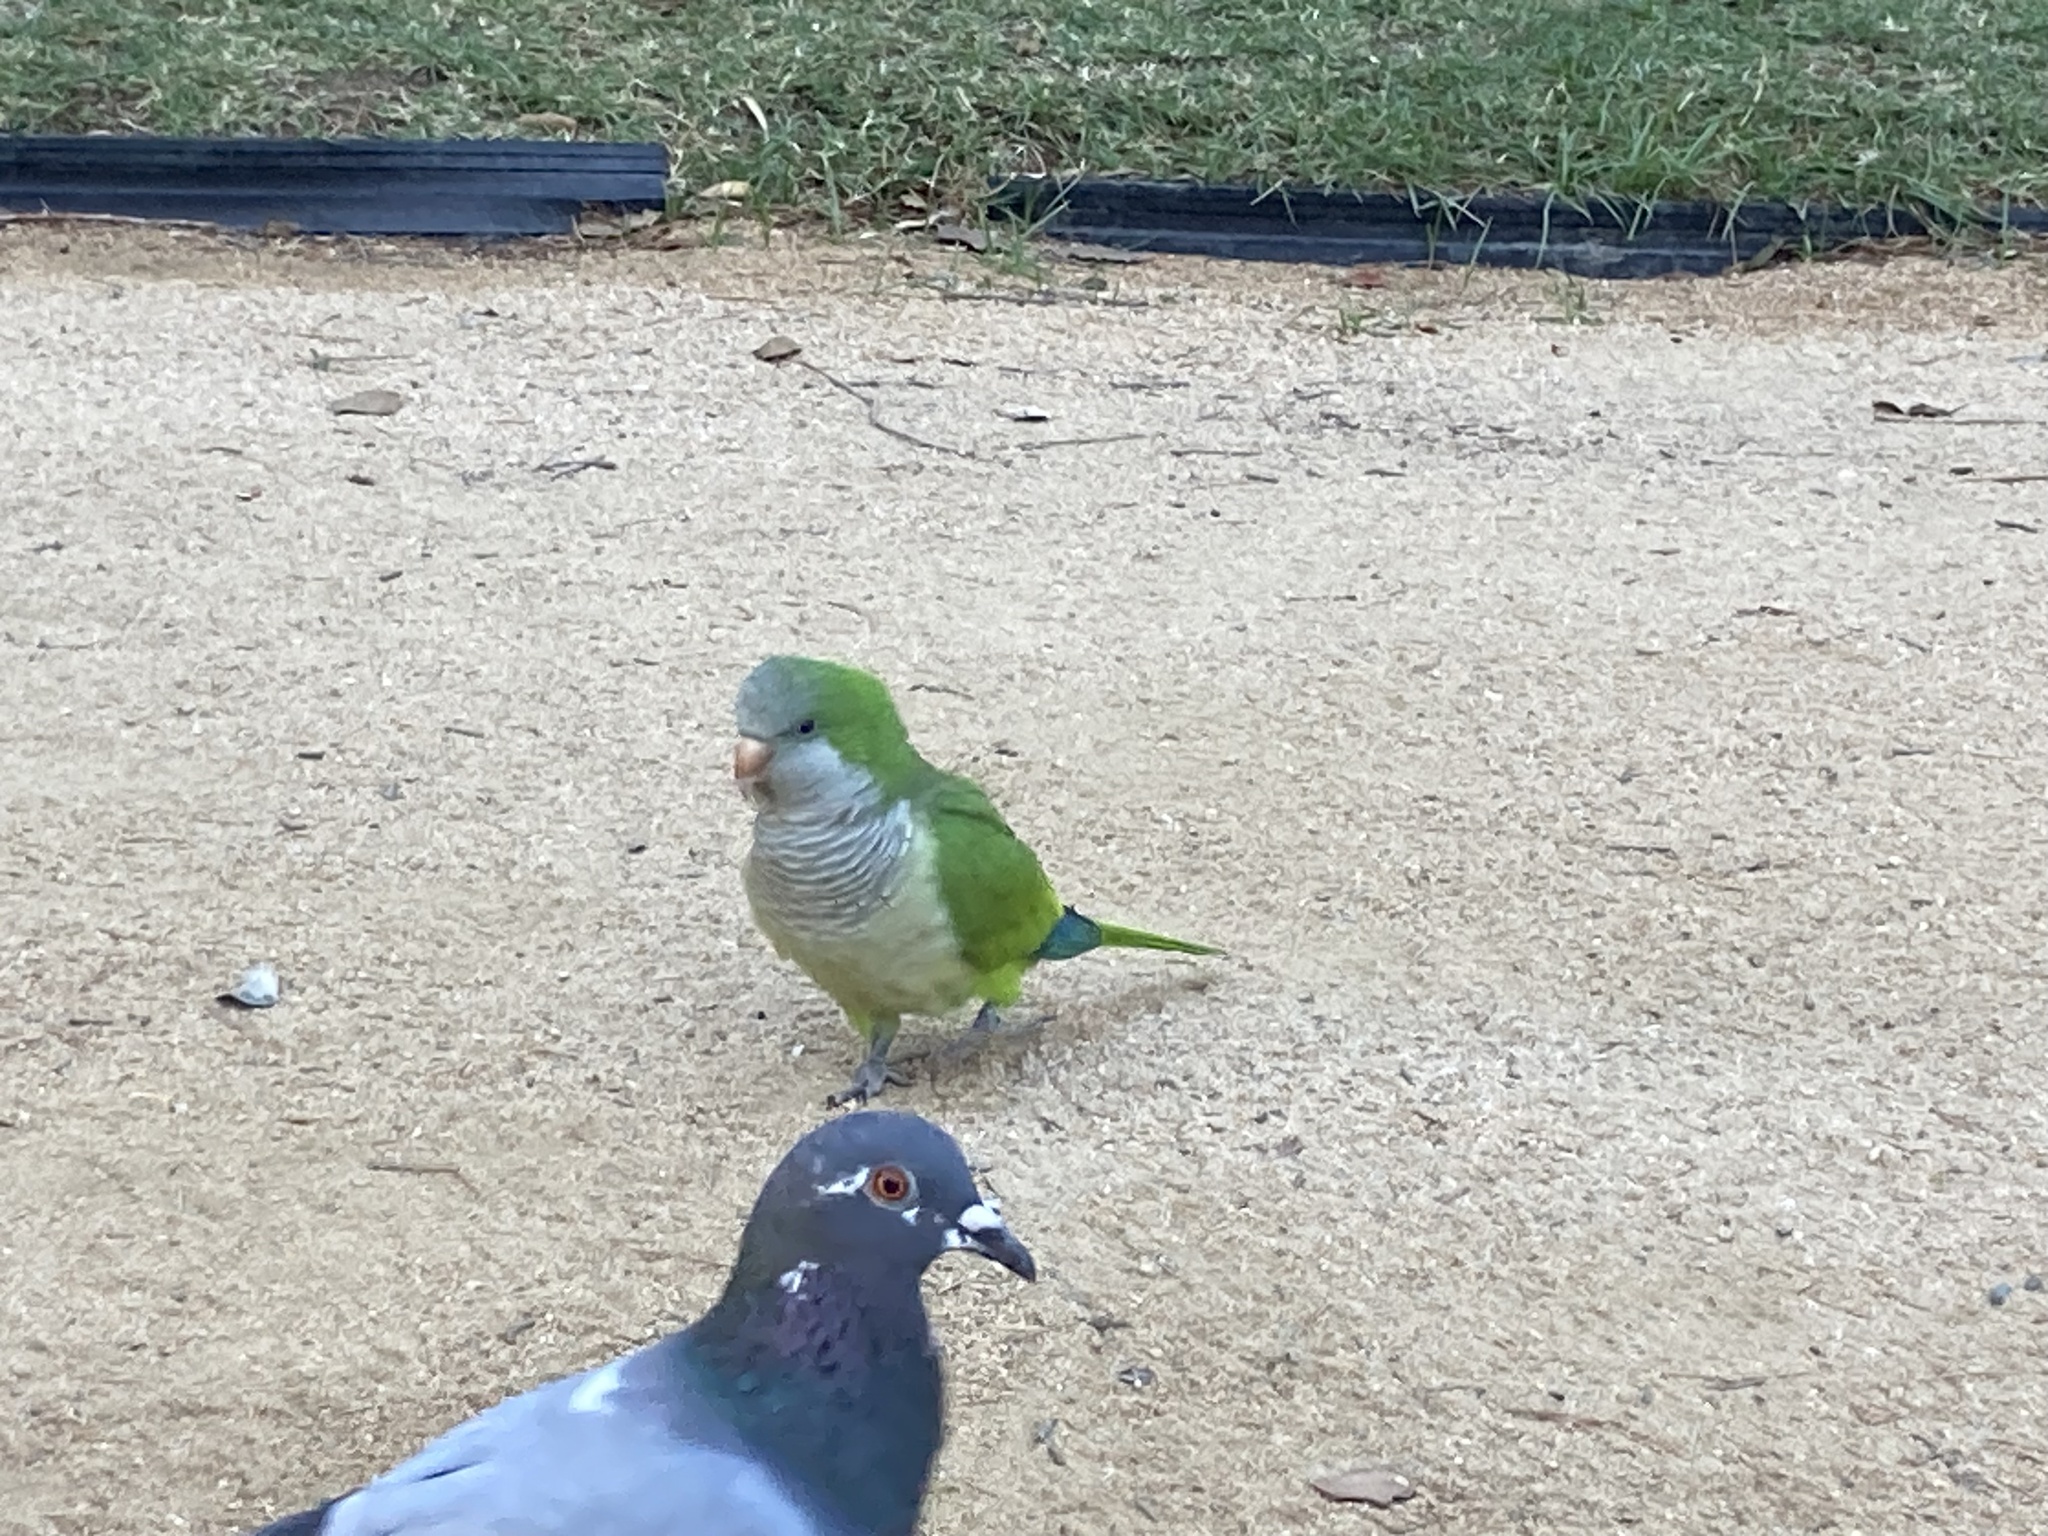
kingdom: Animalia
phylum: Chordata
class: Aves
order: Psittaciformes
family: Psittacidae
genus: Myiopsitta
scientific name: Myiopsitta monachus
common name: Monk parakeet
